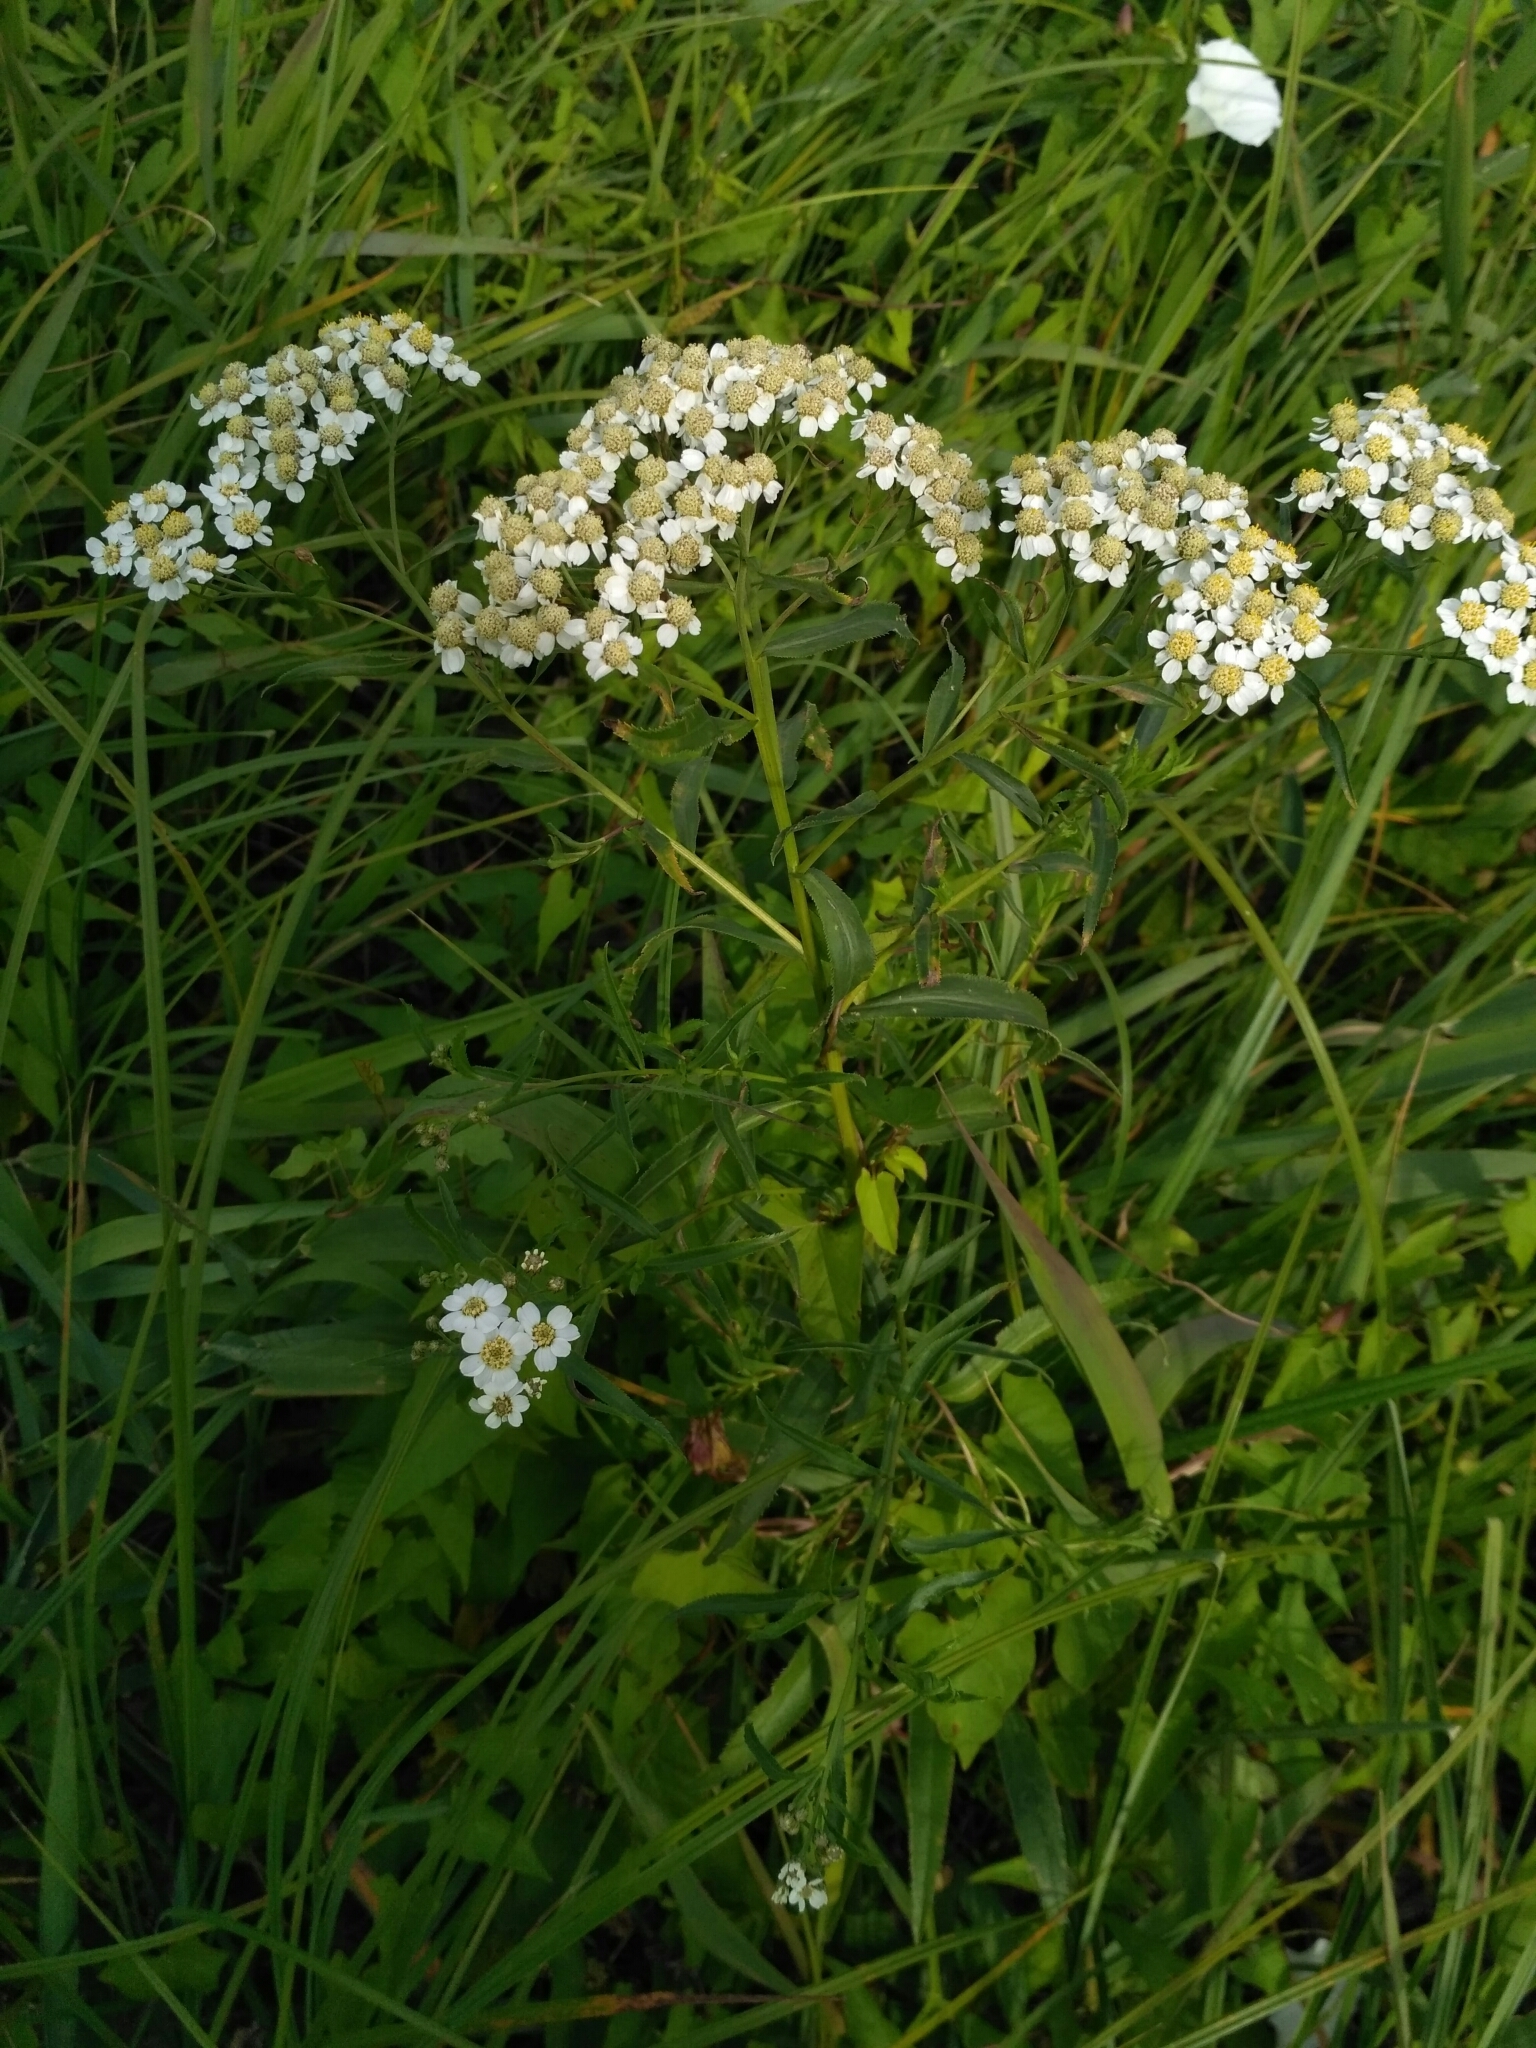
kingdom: Plantae
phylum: Tracheophyta
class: Magnoliopsida
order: Asterales
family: Asteraceae
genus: Achillea
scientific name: Achillea salicifolia
